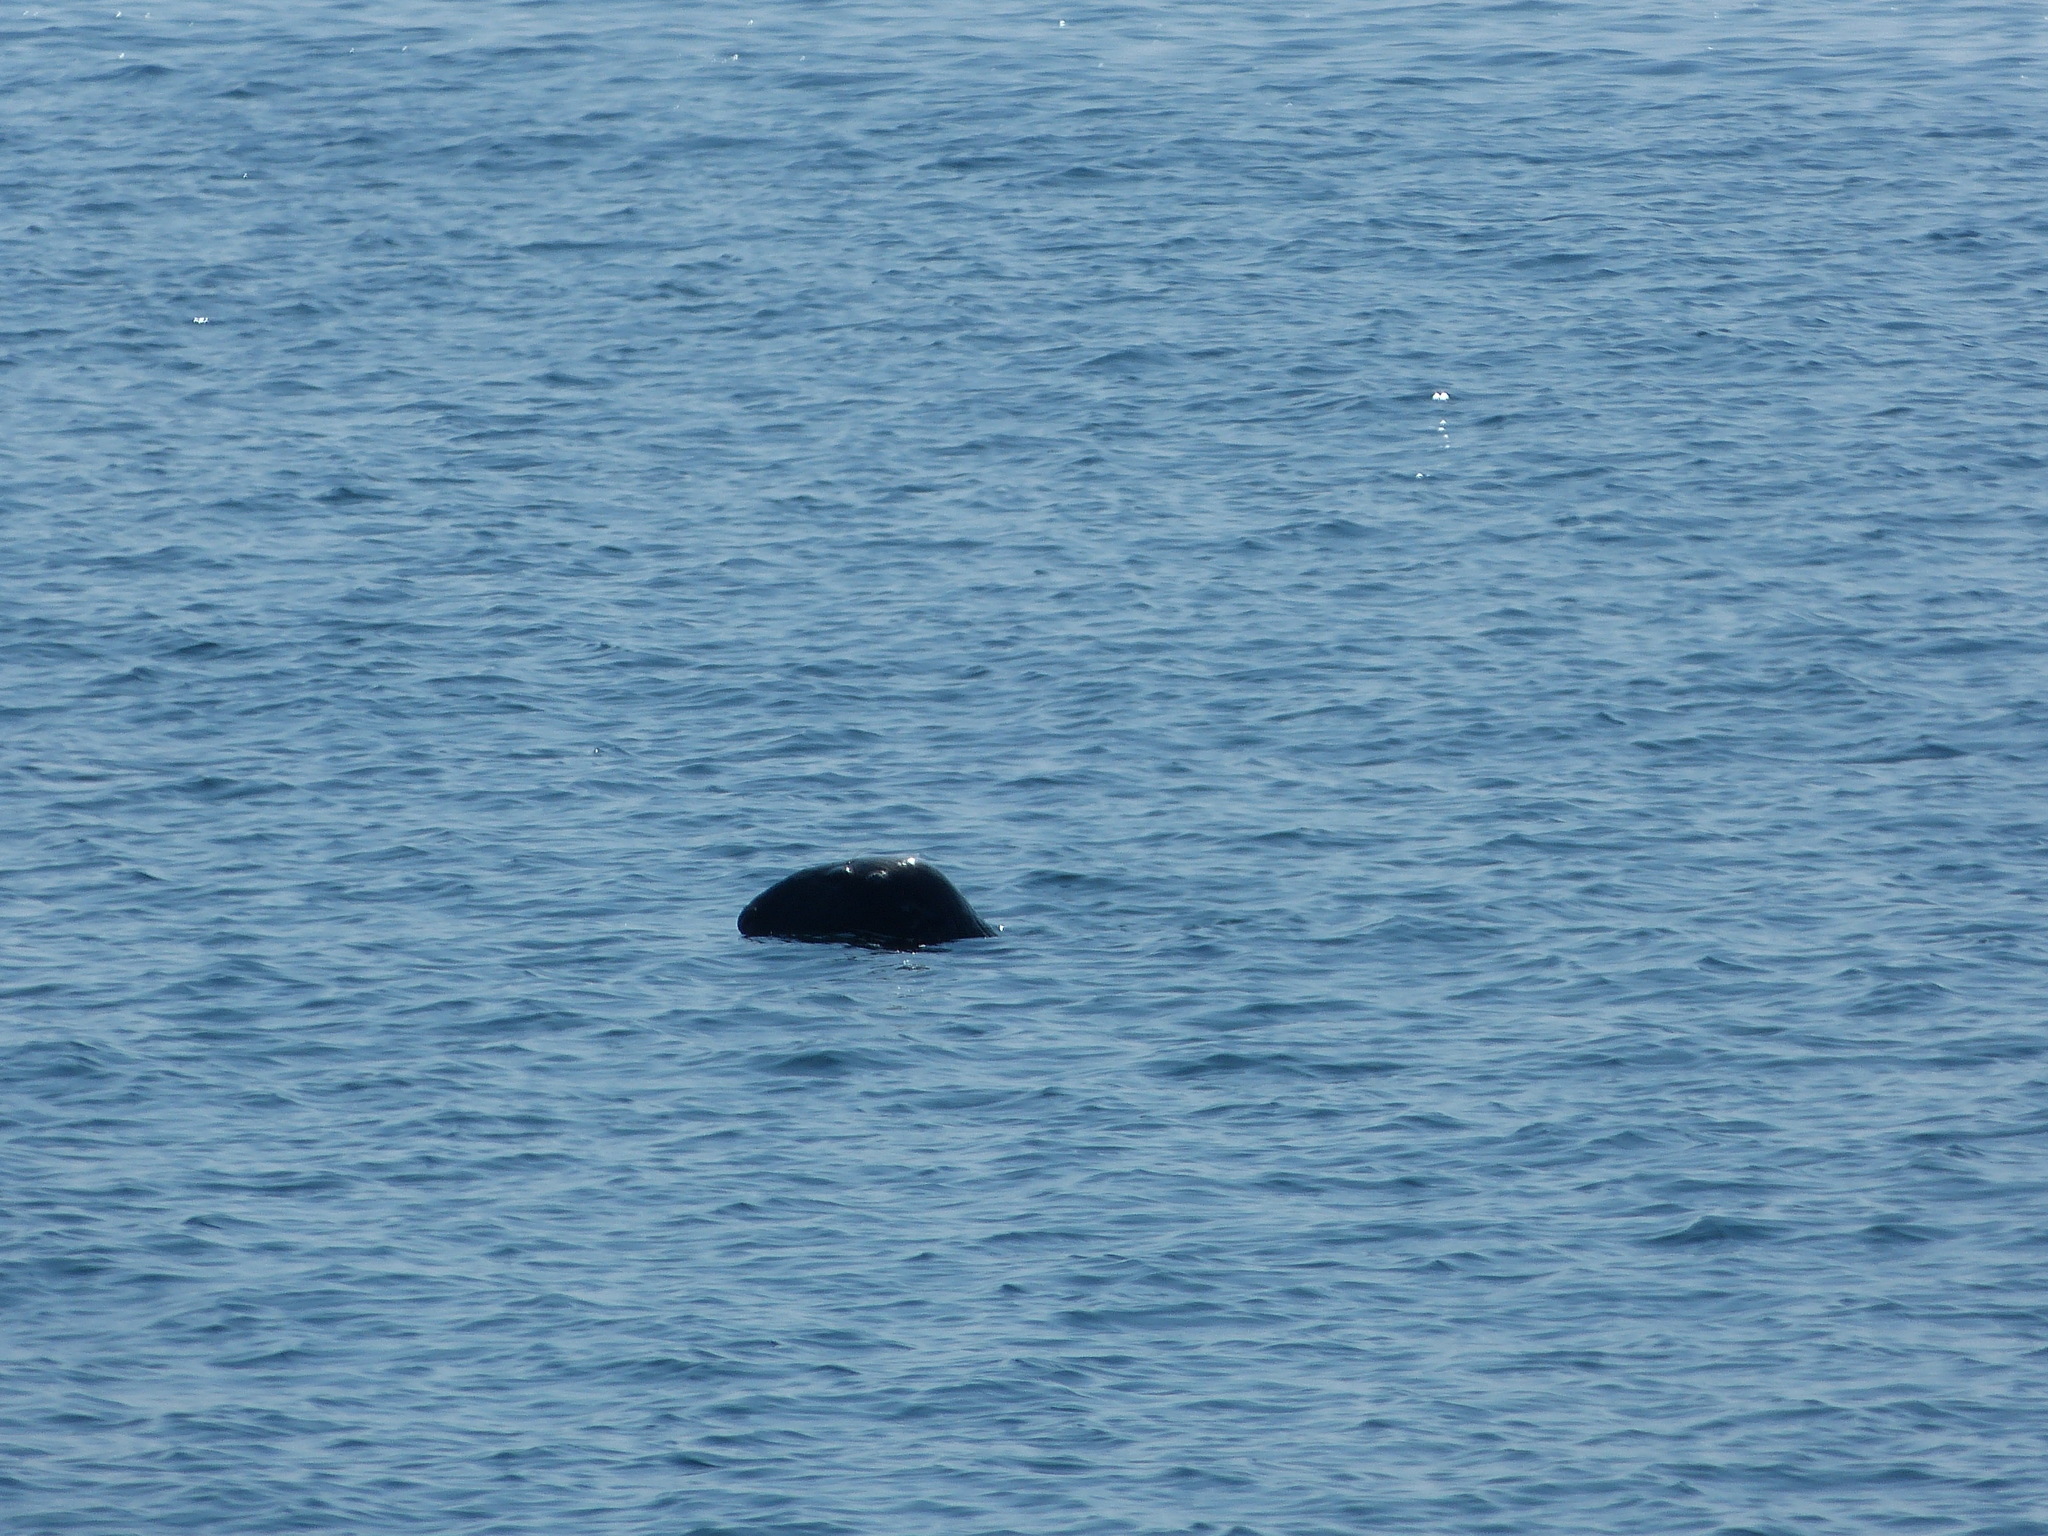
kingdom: Animalia
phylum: Chordata
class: Mammalia
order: Carnivora
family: Phocidae
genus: Halichoerus
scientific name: Halichoerus grypus
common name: Grey seal
